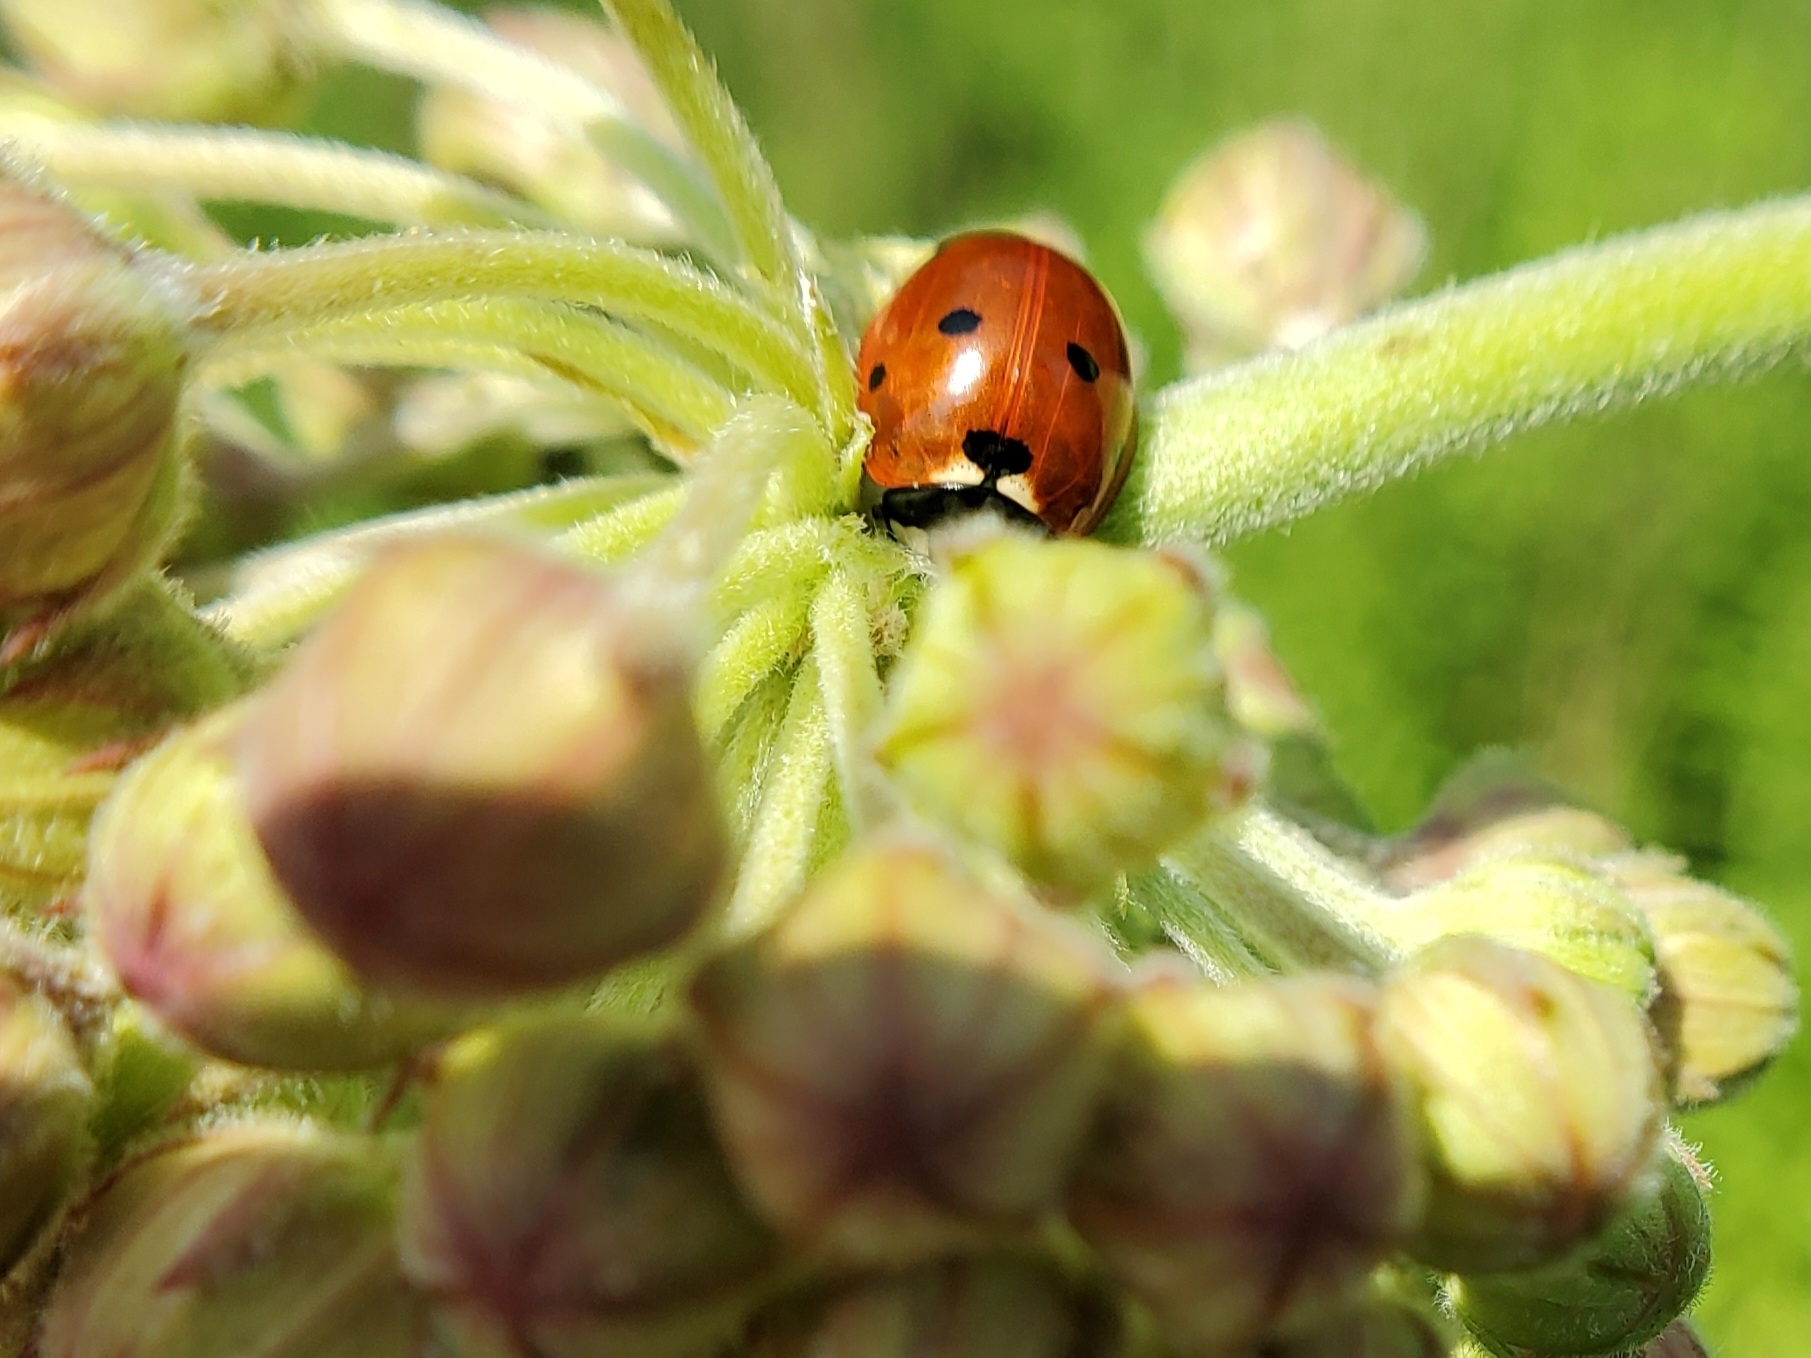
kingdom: Animalia
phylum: Arthropoda
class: Insecta
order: Coleoptera
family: Coccinellidae
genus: Coccinella
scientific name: Coccinella septempunctata
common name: Sevenspotted lady beetle
